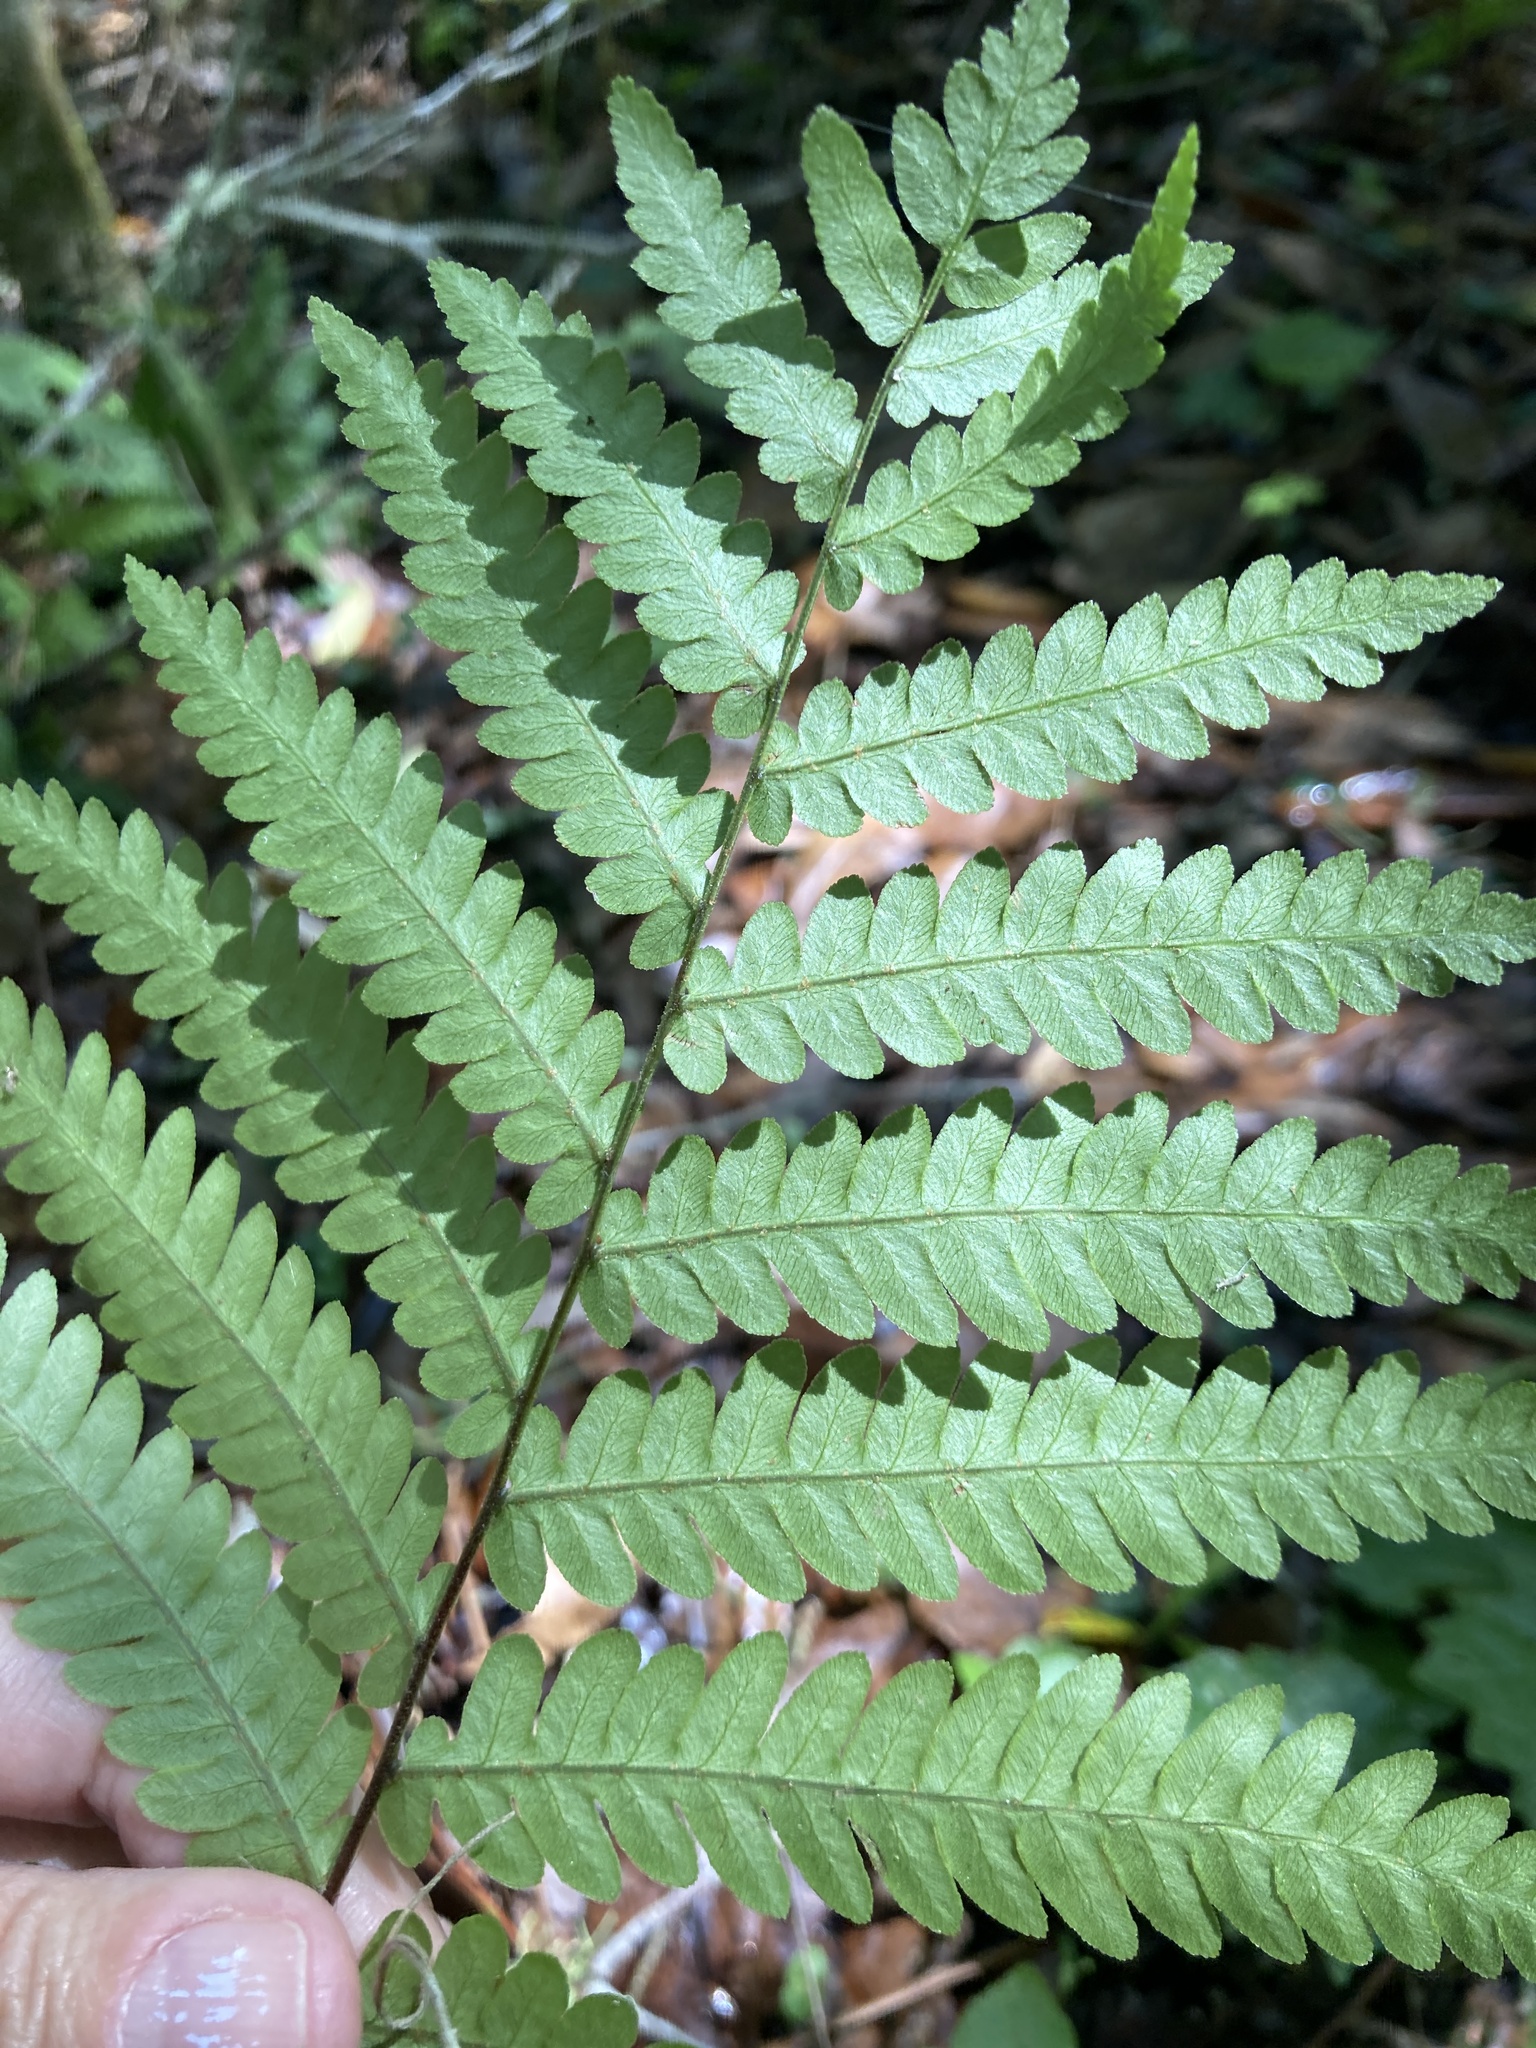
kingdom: Plantae
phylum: Tracheophyta
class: Polypodiopsida
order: Polypodiales
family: Blechnaceae
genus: Anchistea
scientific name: Anchistea virginica
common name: Virginia chain fern
